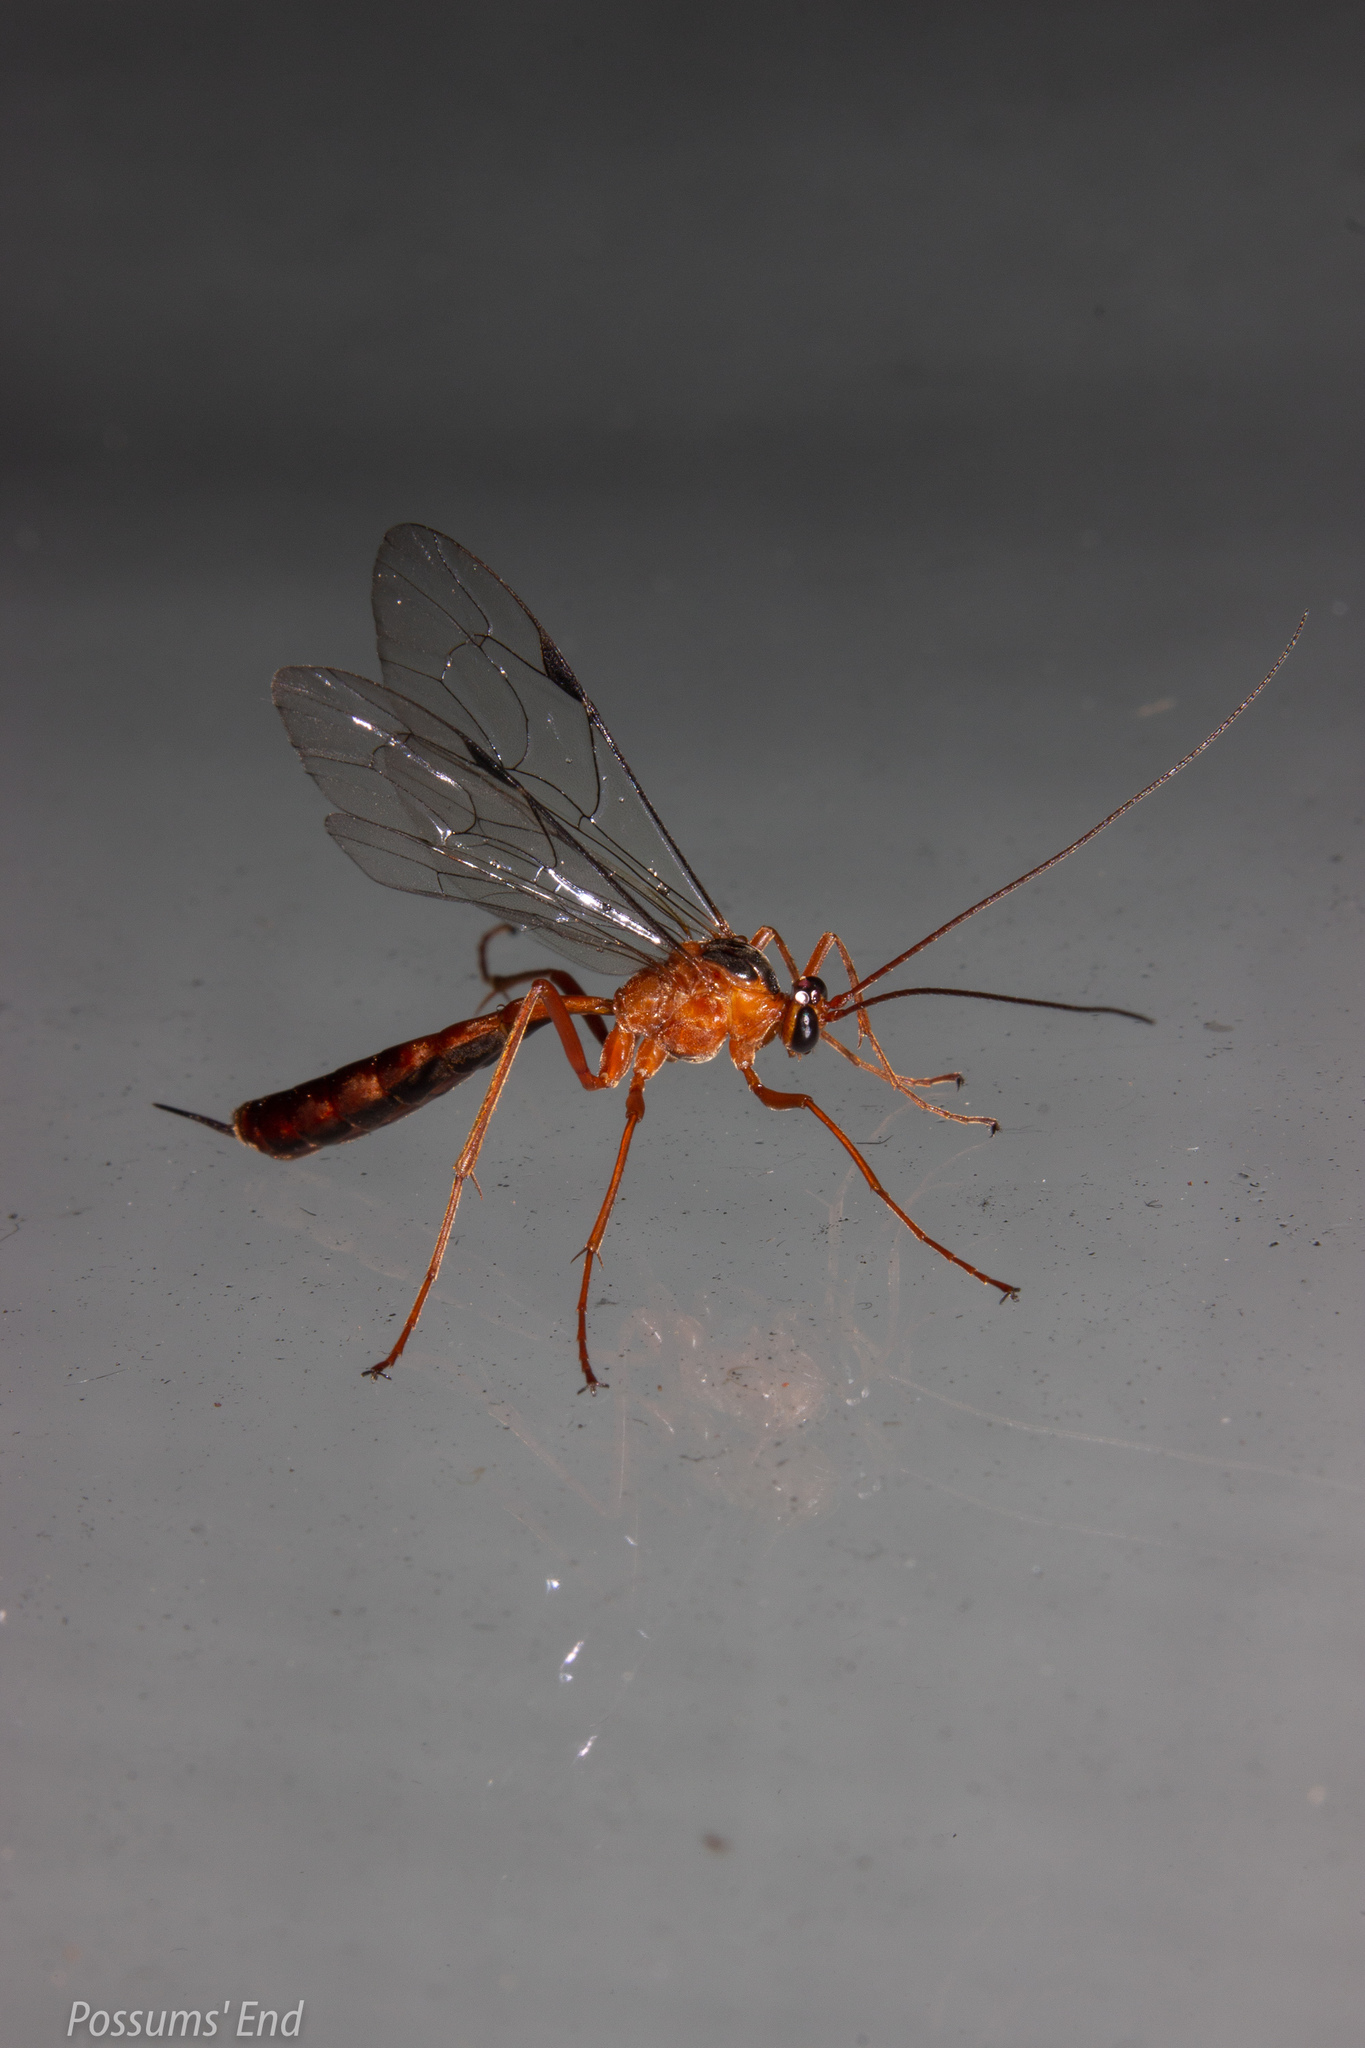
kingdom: Animalia
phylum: Arthropoda
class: Insecta
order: Hymenoptera
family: Ichneumonidae
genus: Netelia
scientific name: Netelia ephippiata
